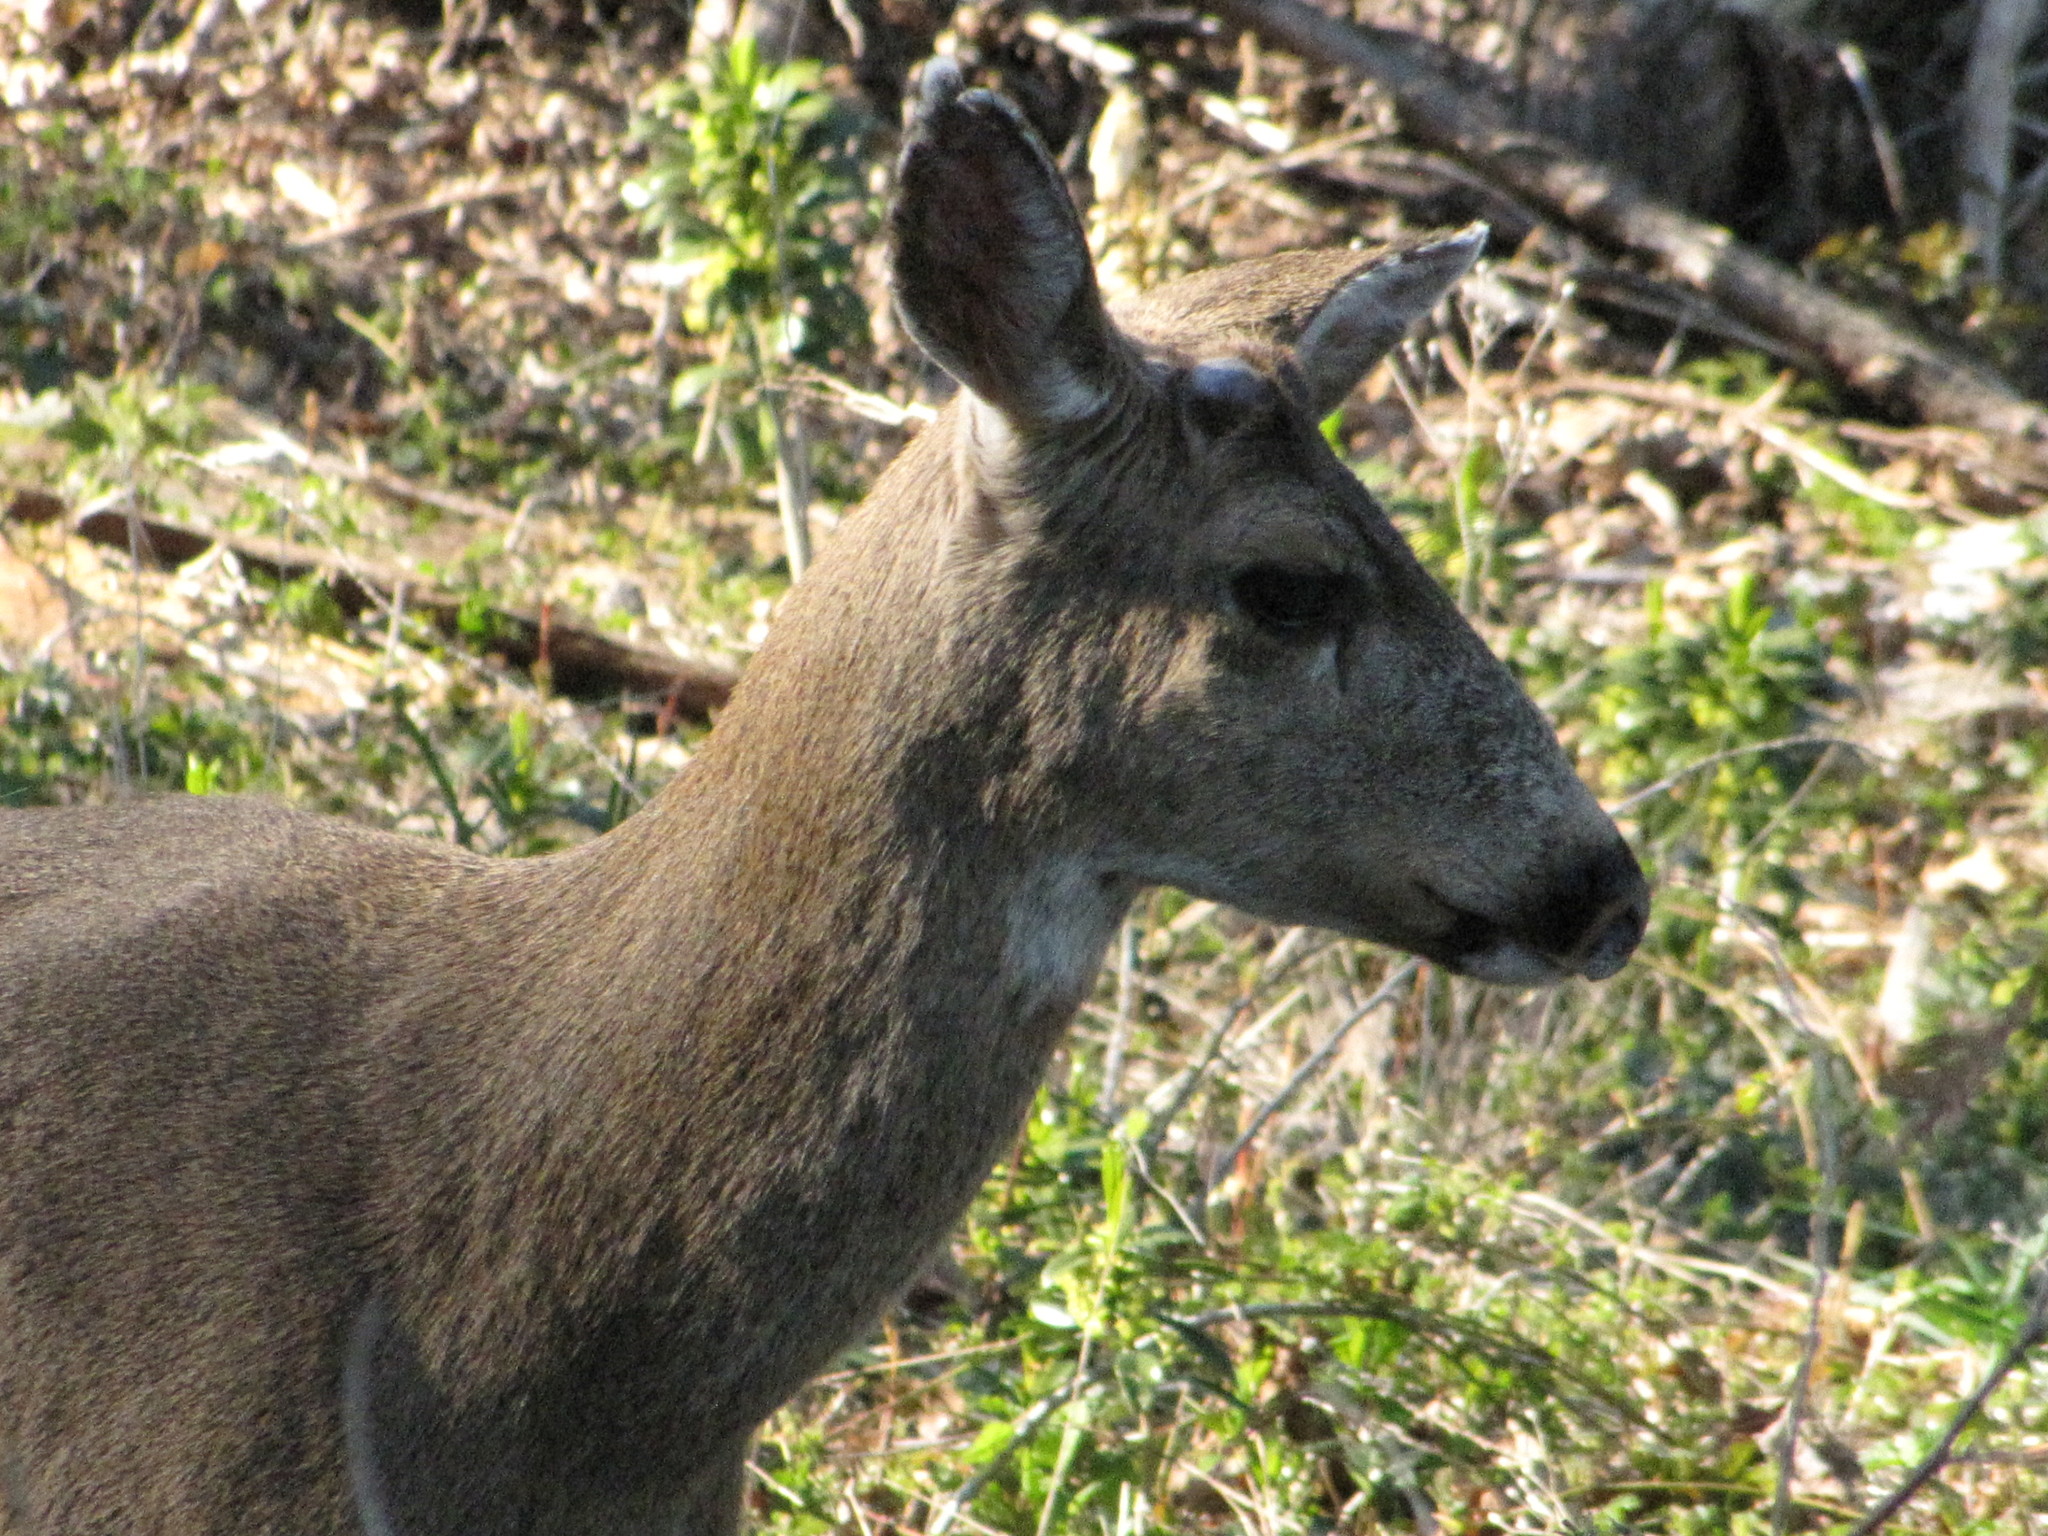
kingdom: Animalia
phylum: Chordata
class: Mammalia
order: Artiodactyla
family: Cervidae
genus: Odocoileus
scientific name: Odocoileus hemionus
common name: Mule deer
